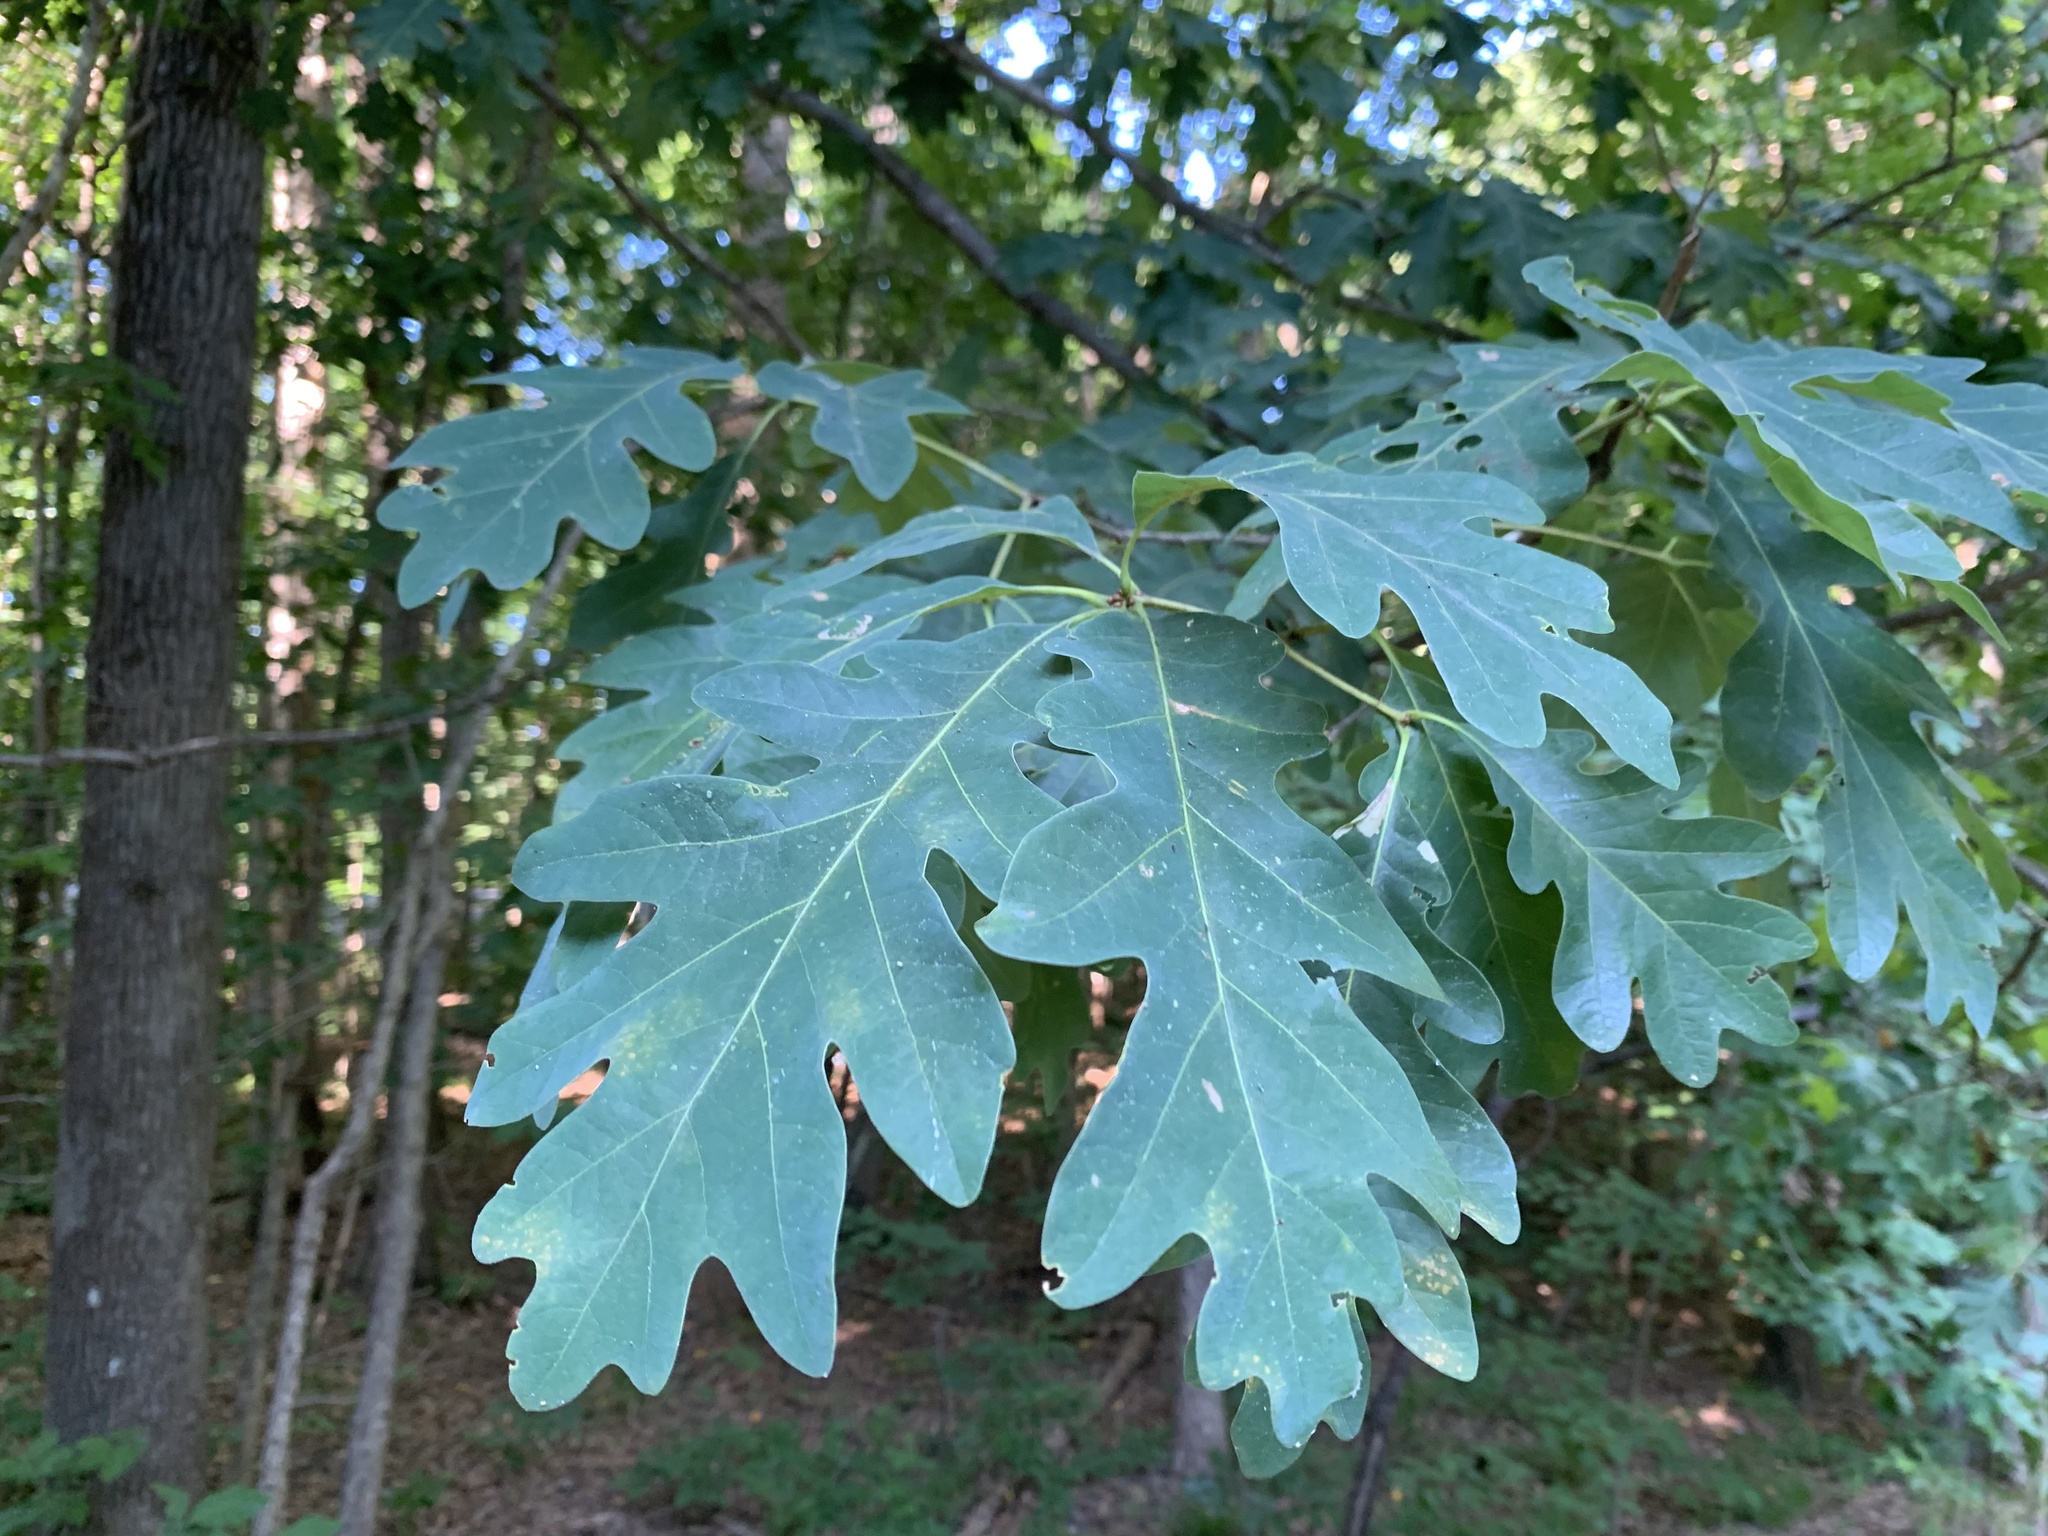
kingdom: Plantae
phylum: Tracheophyta
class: Magnoliopsida
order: Fagales
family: Fagaceae
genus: Quercus
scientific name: Quercus alba
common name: White oak
